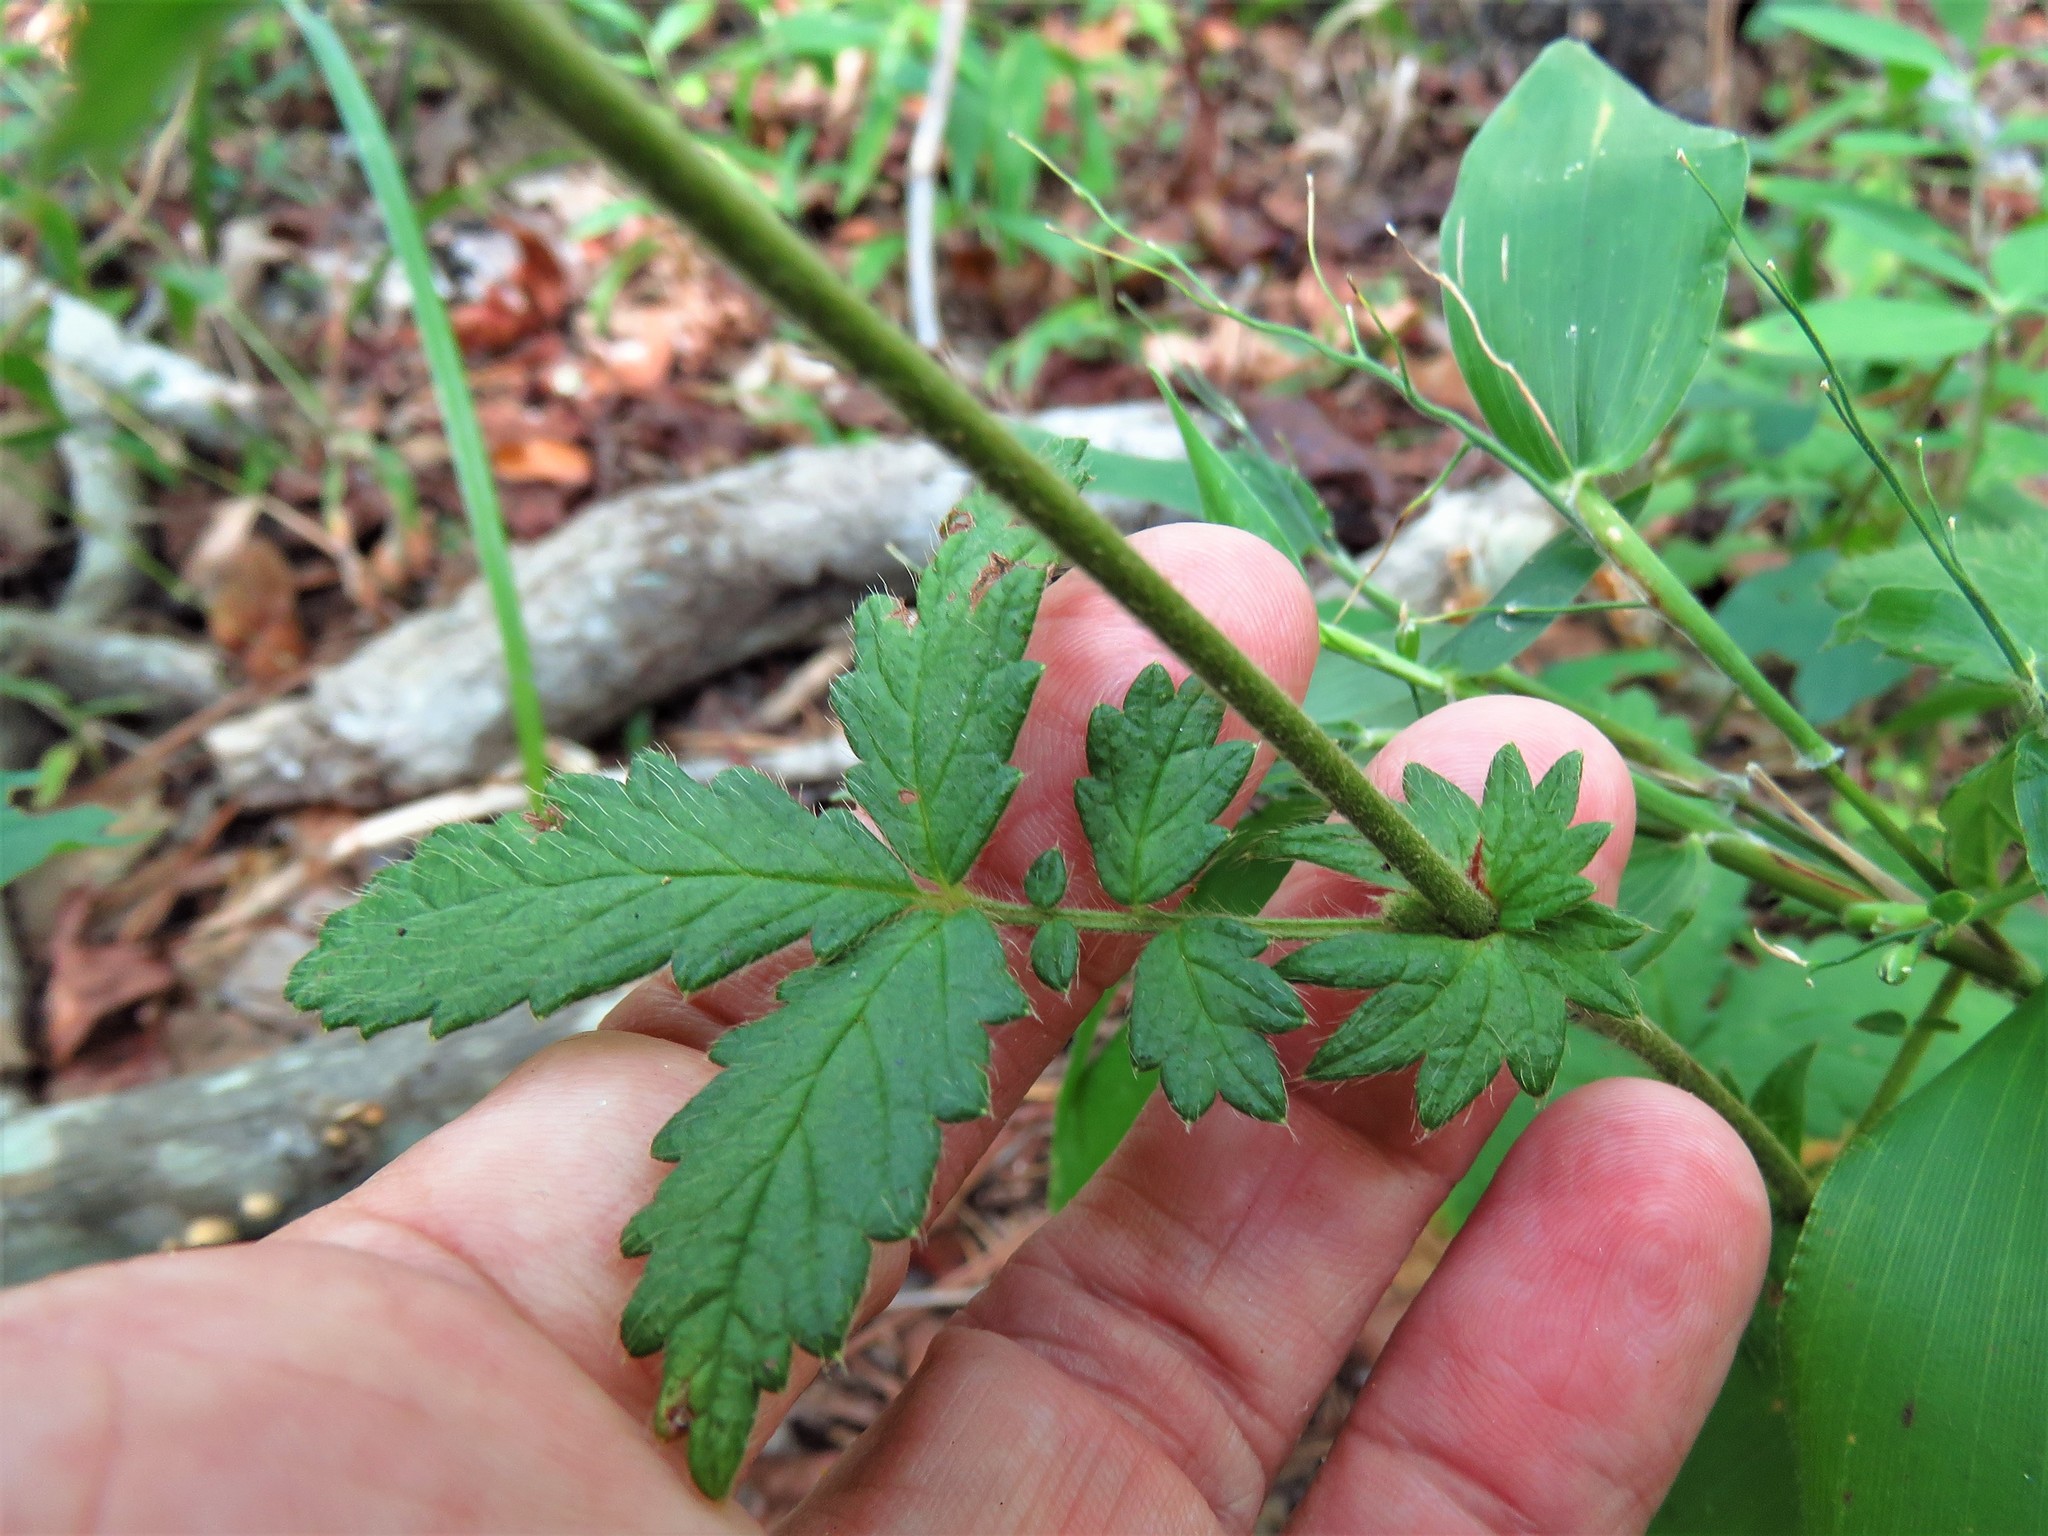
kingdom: Plantae
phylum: Tracheophyta
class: Magnoliopsida
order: Rosales
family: Rosaceae
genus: Agrimonia
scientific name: Agrimonia microcarpa
